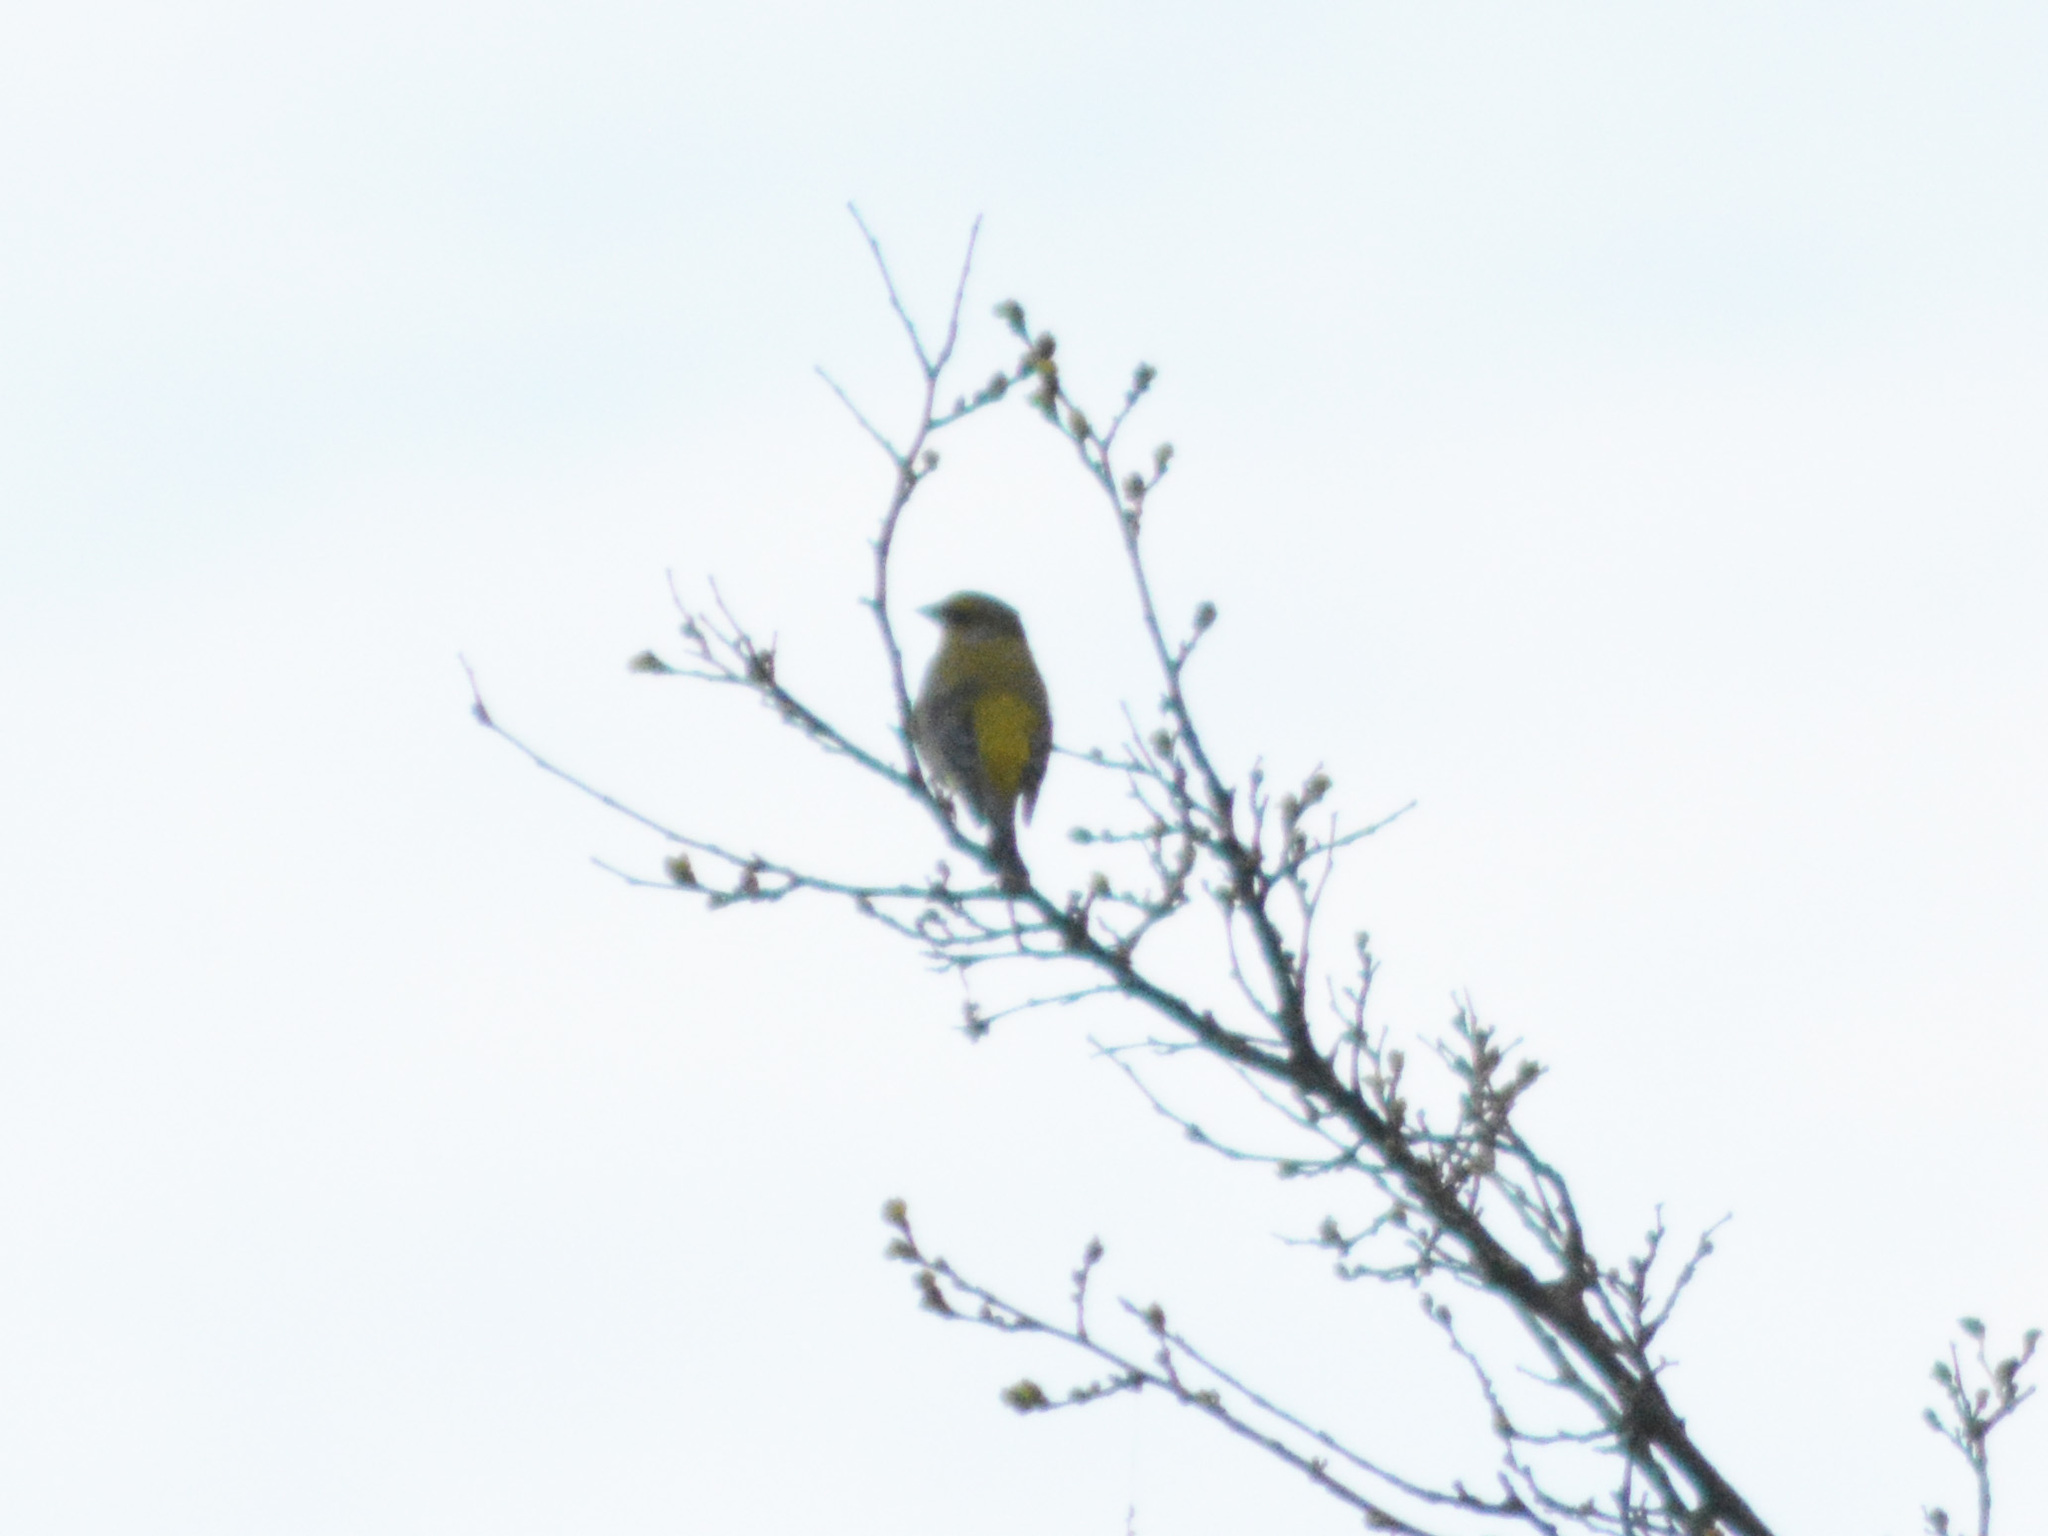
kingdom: Plantae
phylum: Tracheophyta
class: Liliopsida
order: Poales
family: Poaceae
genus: Chloris
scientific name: Chloris chloris
